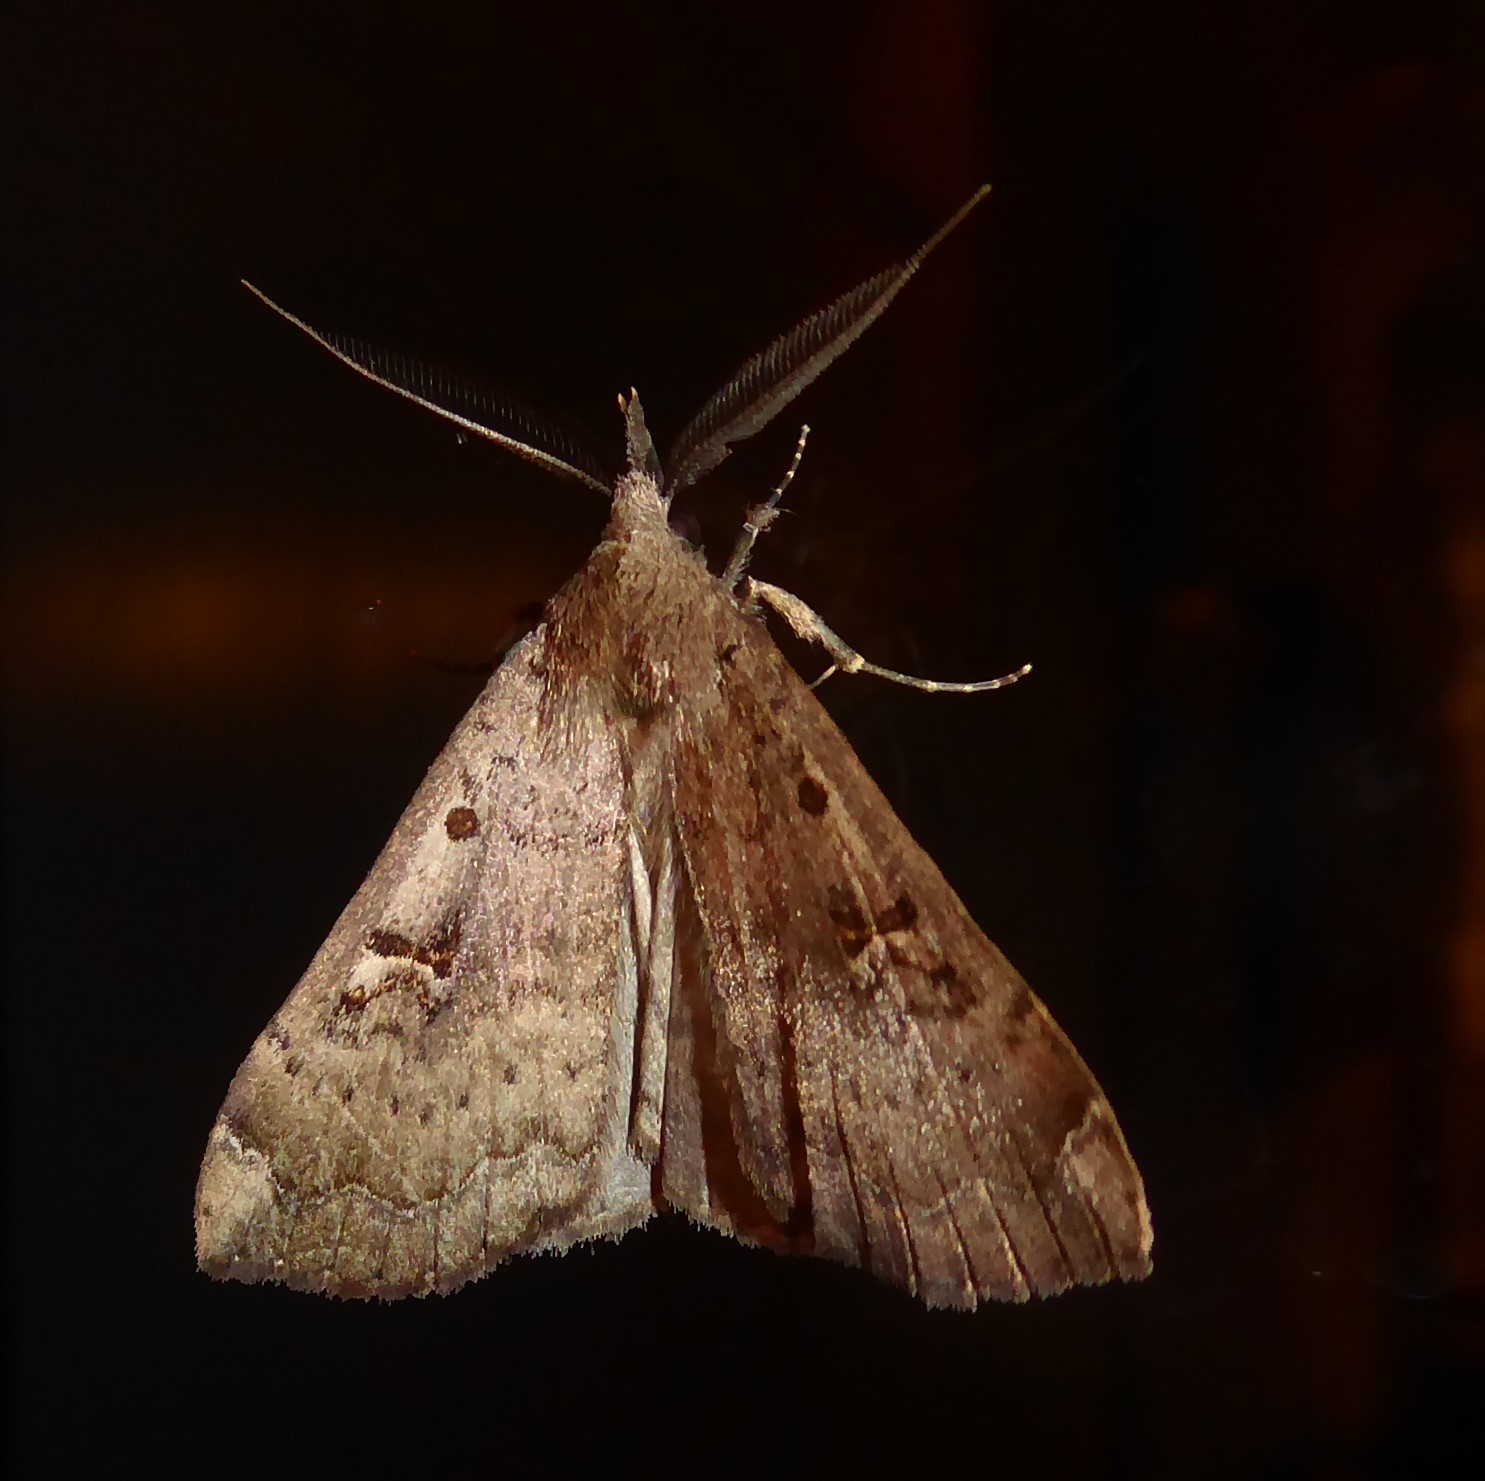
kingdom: Animalia
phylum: Arthropoda
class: Insecta
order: Lepidoptera
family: Erebidae
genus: Rhapsa
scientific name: Rhapsa scotosialis
